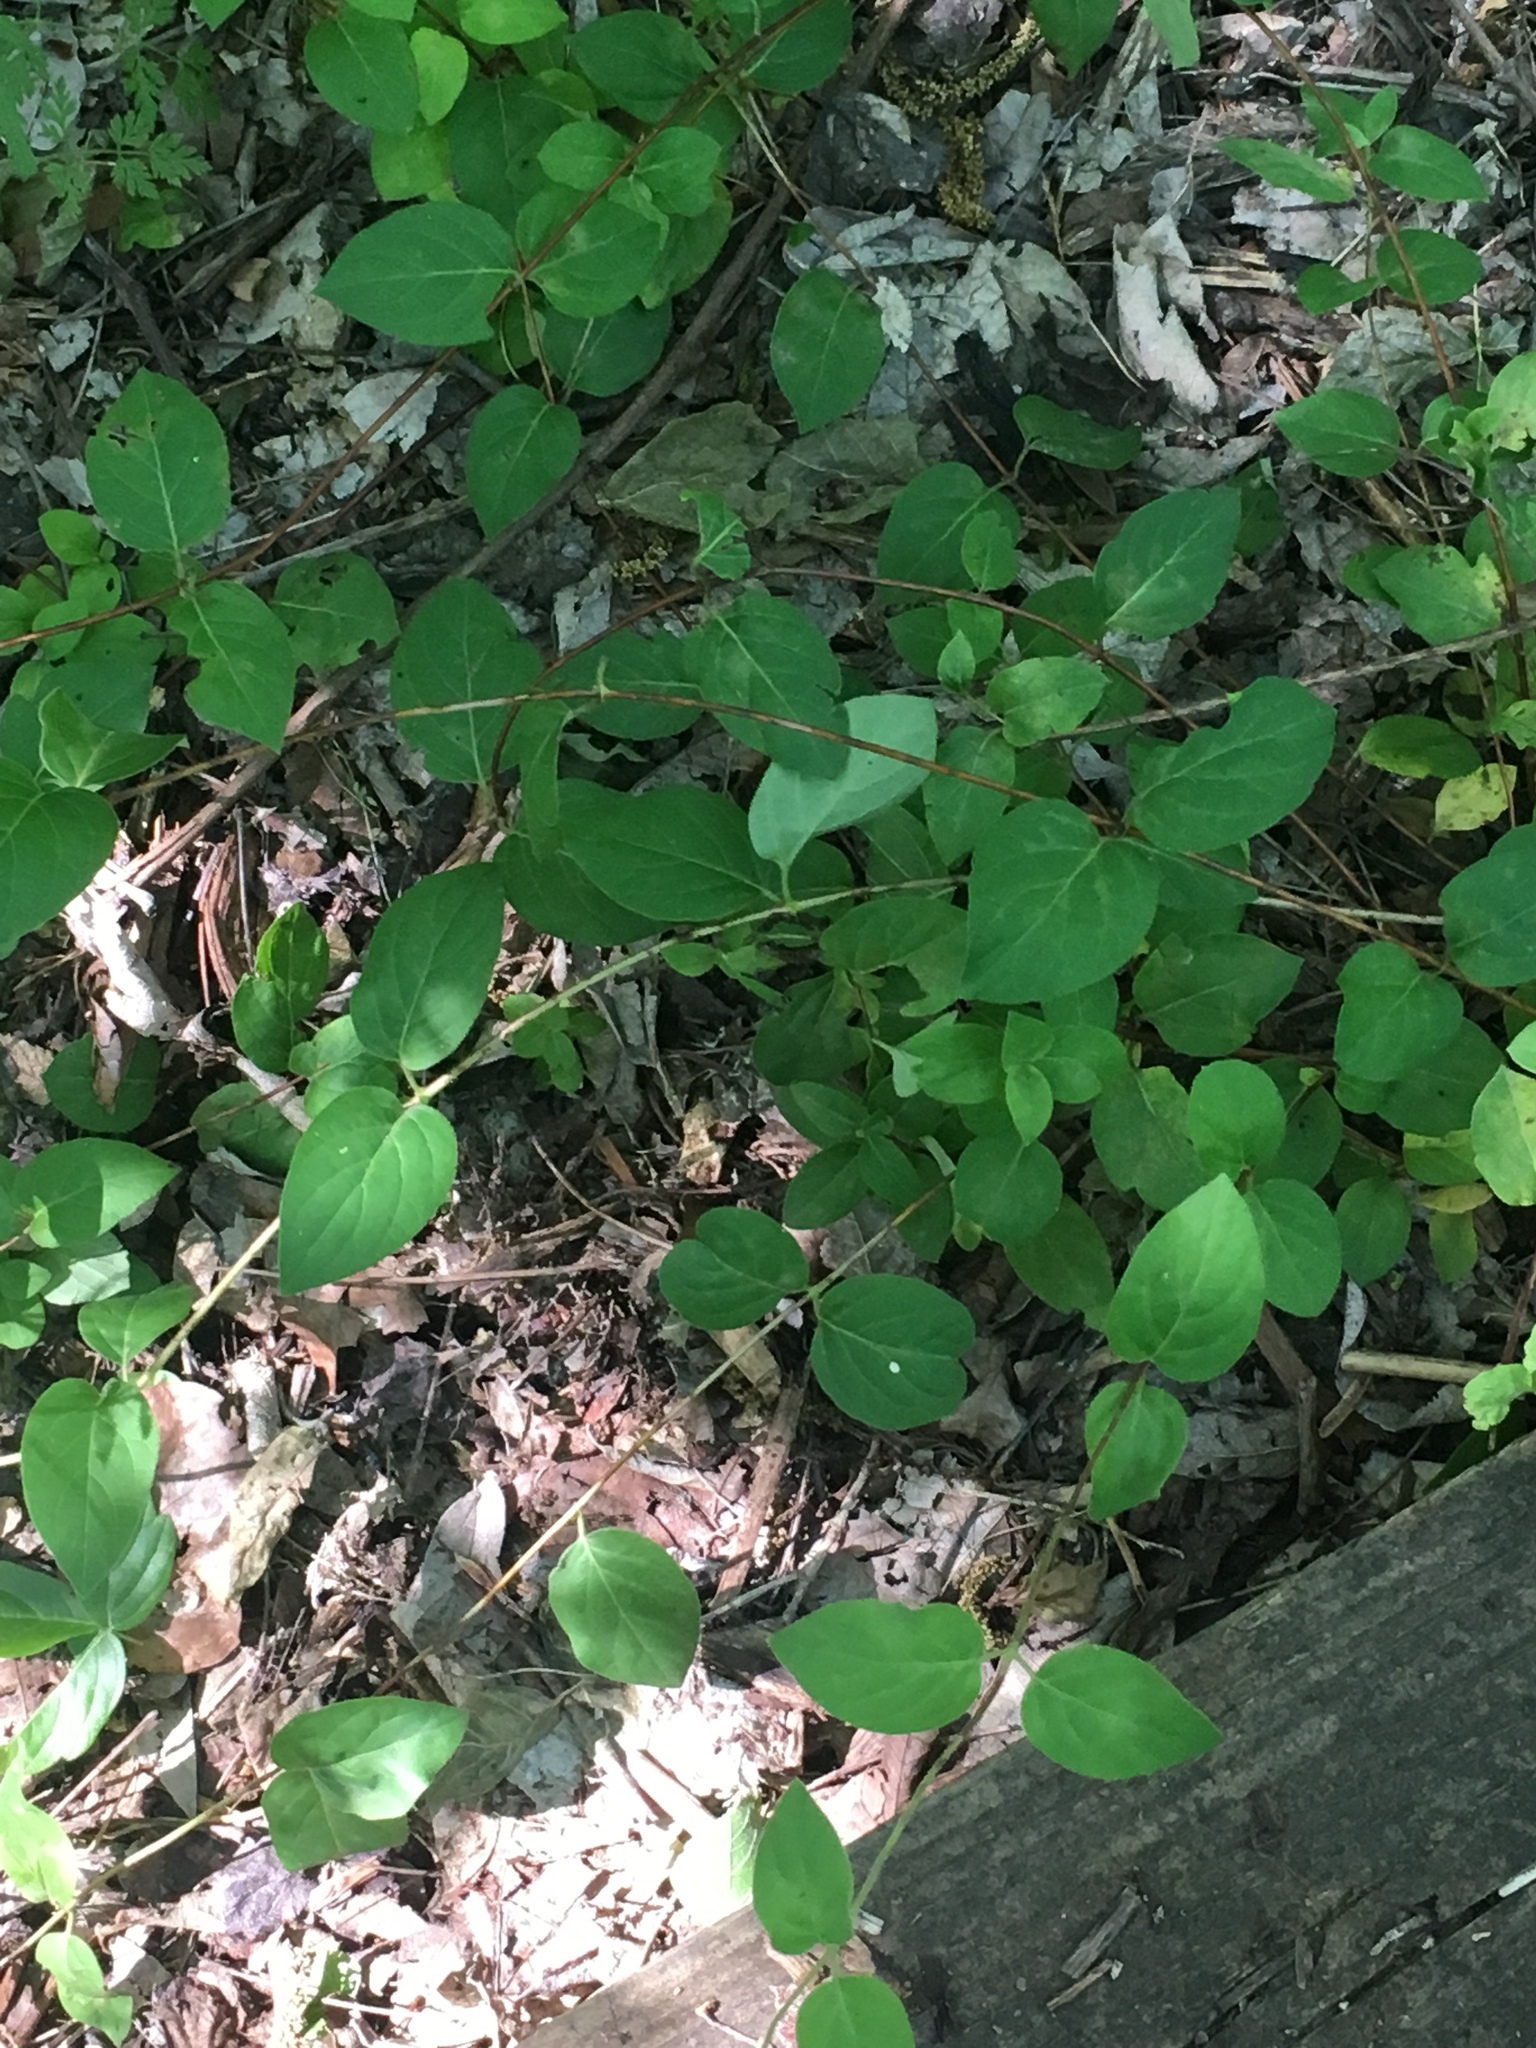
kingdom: Plantae
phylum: Tracheophyta
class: Magnoliopsida
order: Dipsacales
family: Caprifoliaceae
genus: Lonicera
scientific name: Lonicera japonica
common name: Japanese honeysuckle
